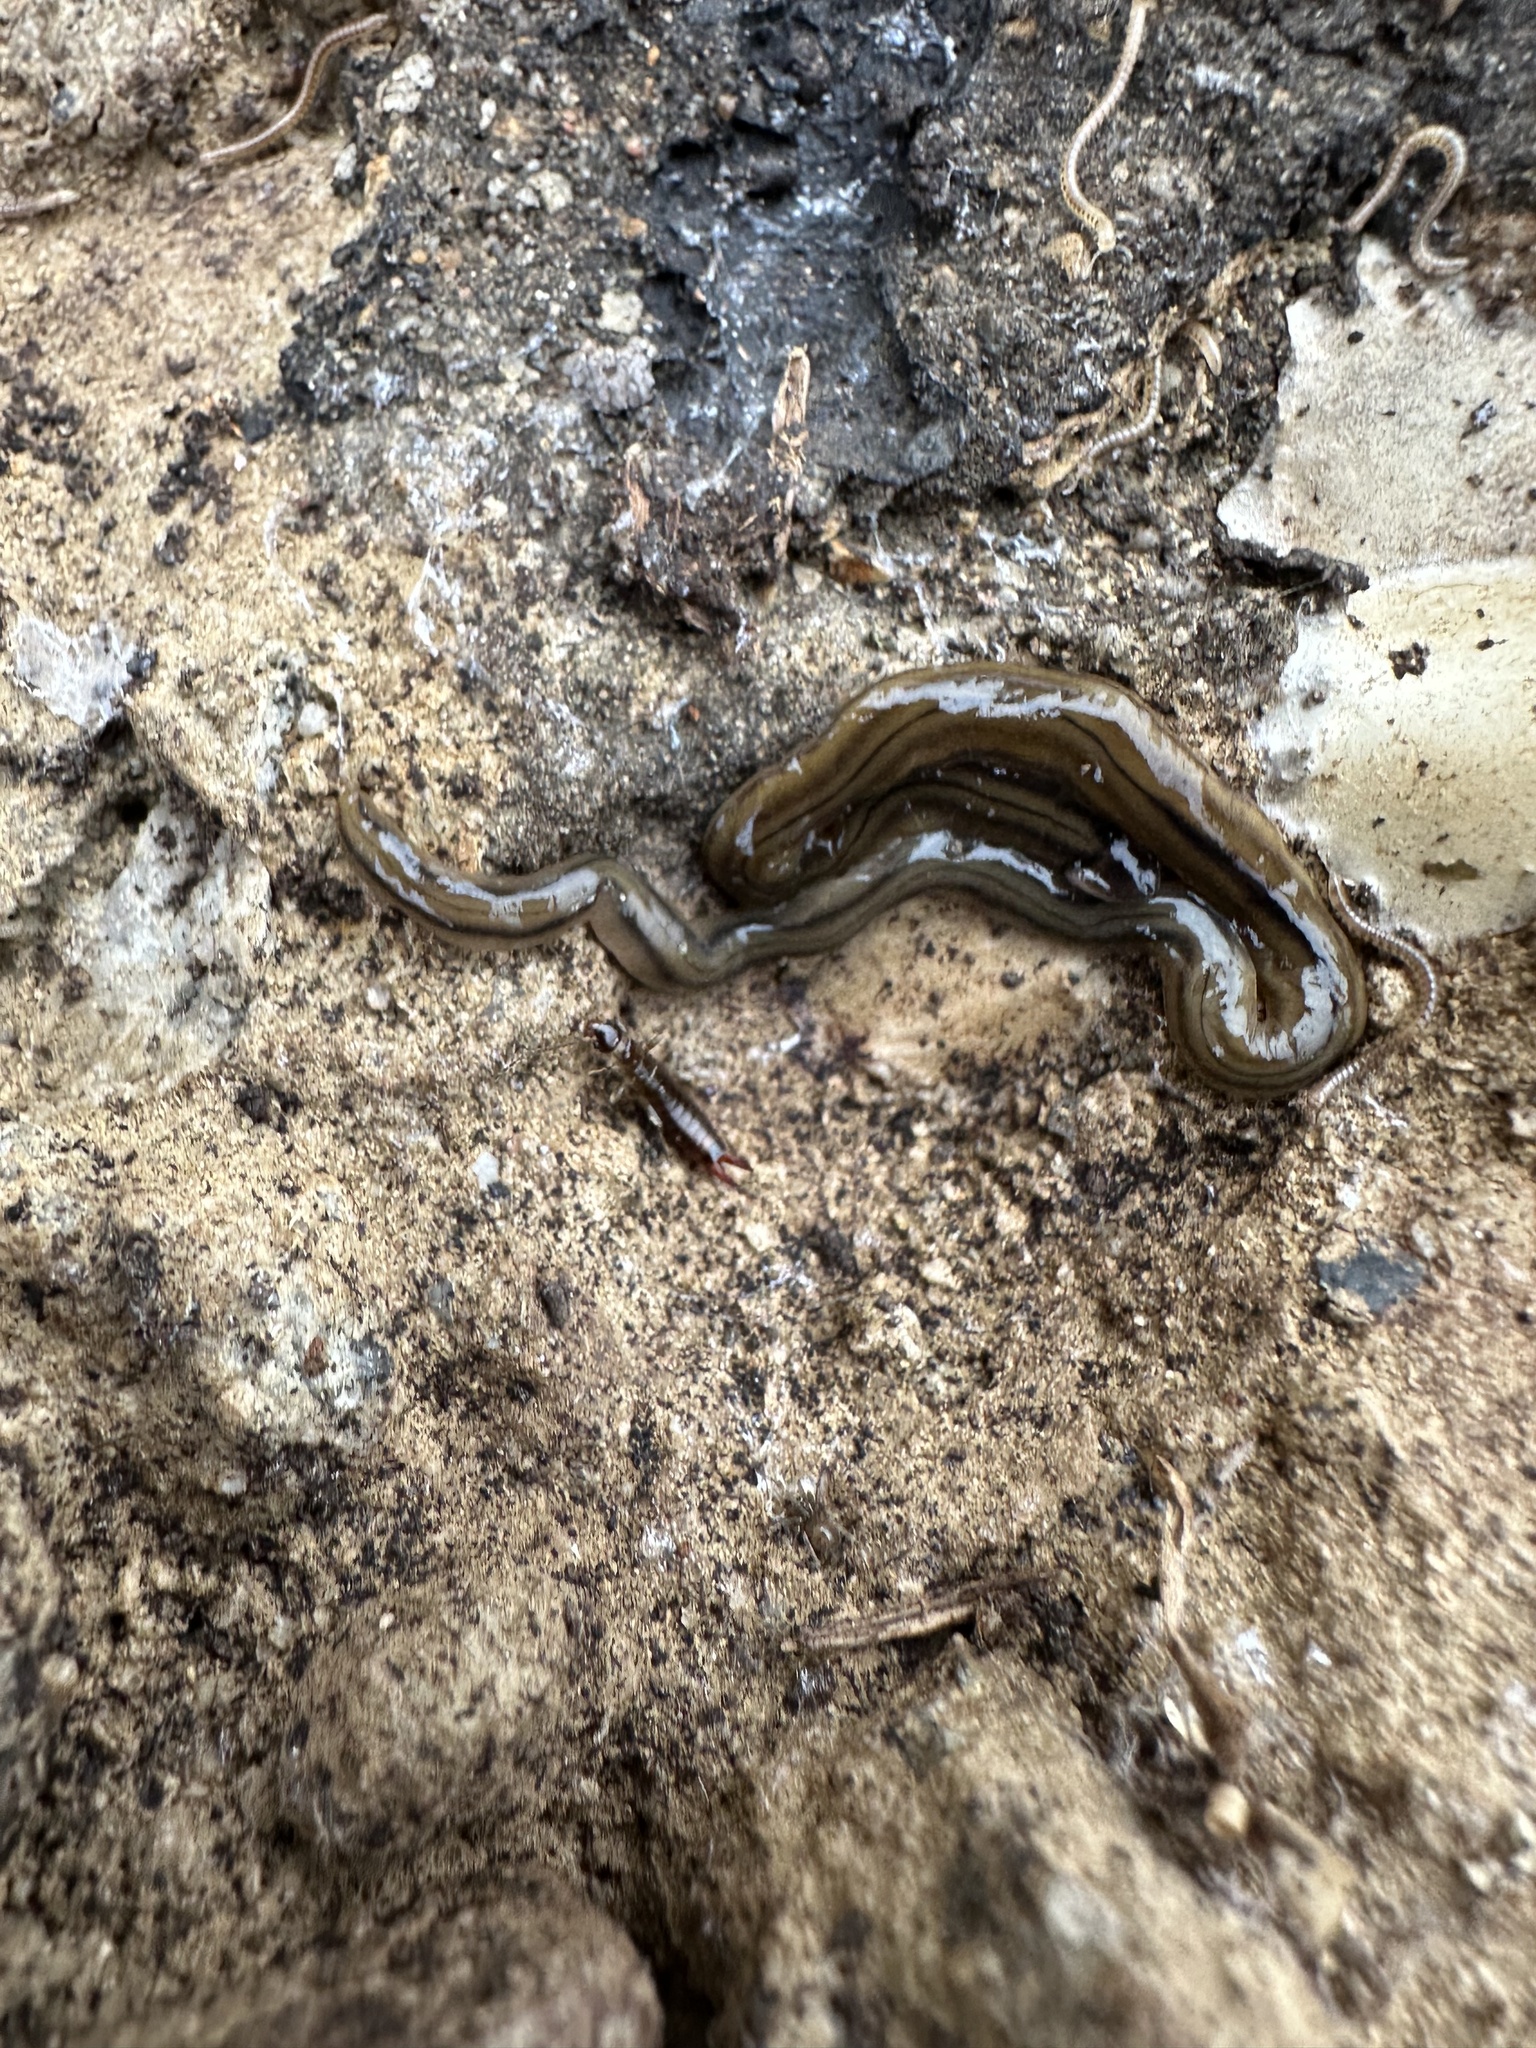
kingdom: Animalia
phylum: Platyhelminthes
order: Tricladida
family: Geoplanidae
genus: Bipalium
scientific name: Bipalium kewense
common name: Hammerhead flatworm
